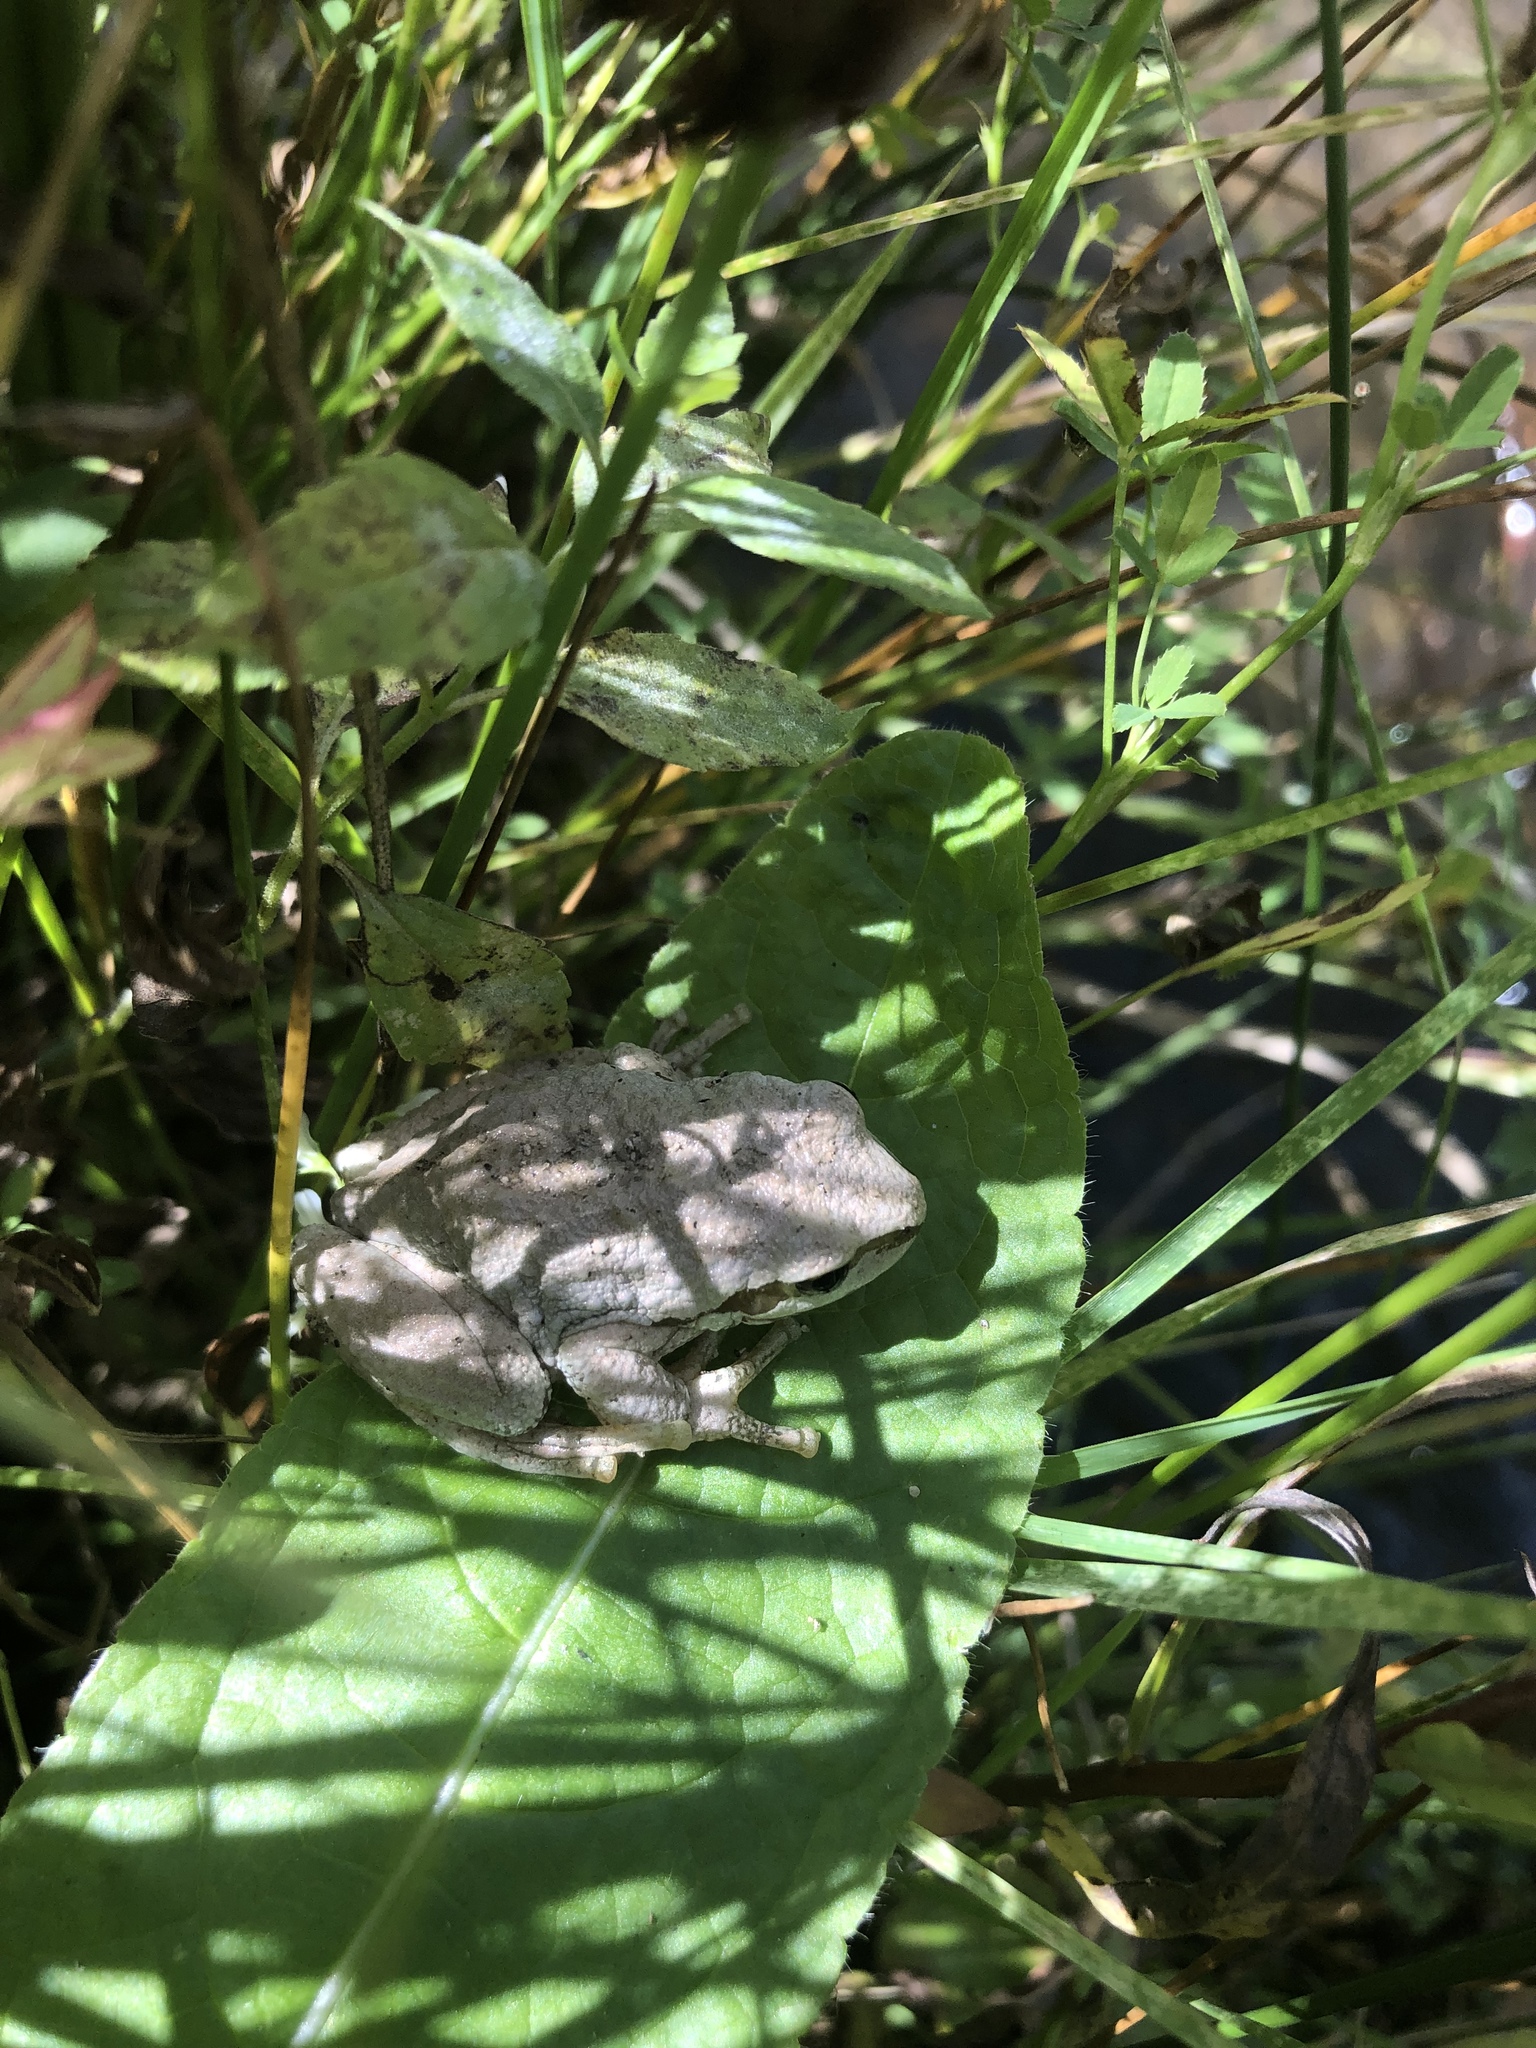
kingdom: Animalia
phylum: Chordata
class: Amphibia
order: Anura
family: Hylidae
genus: Pseudacris
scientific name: Pseudacris regilla
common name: Pacific chorus frog
